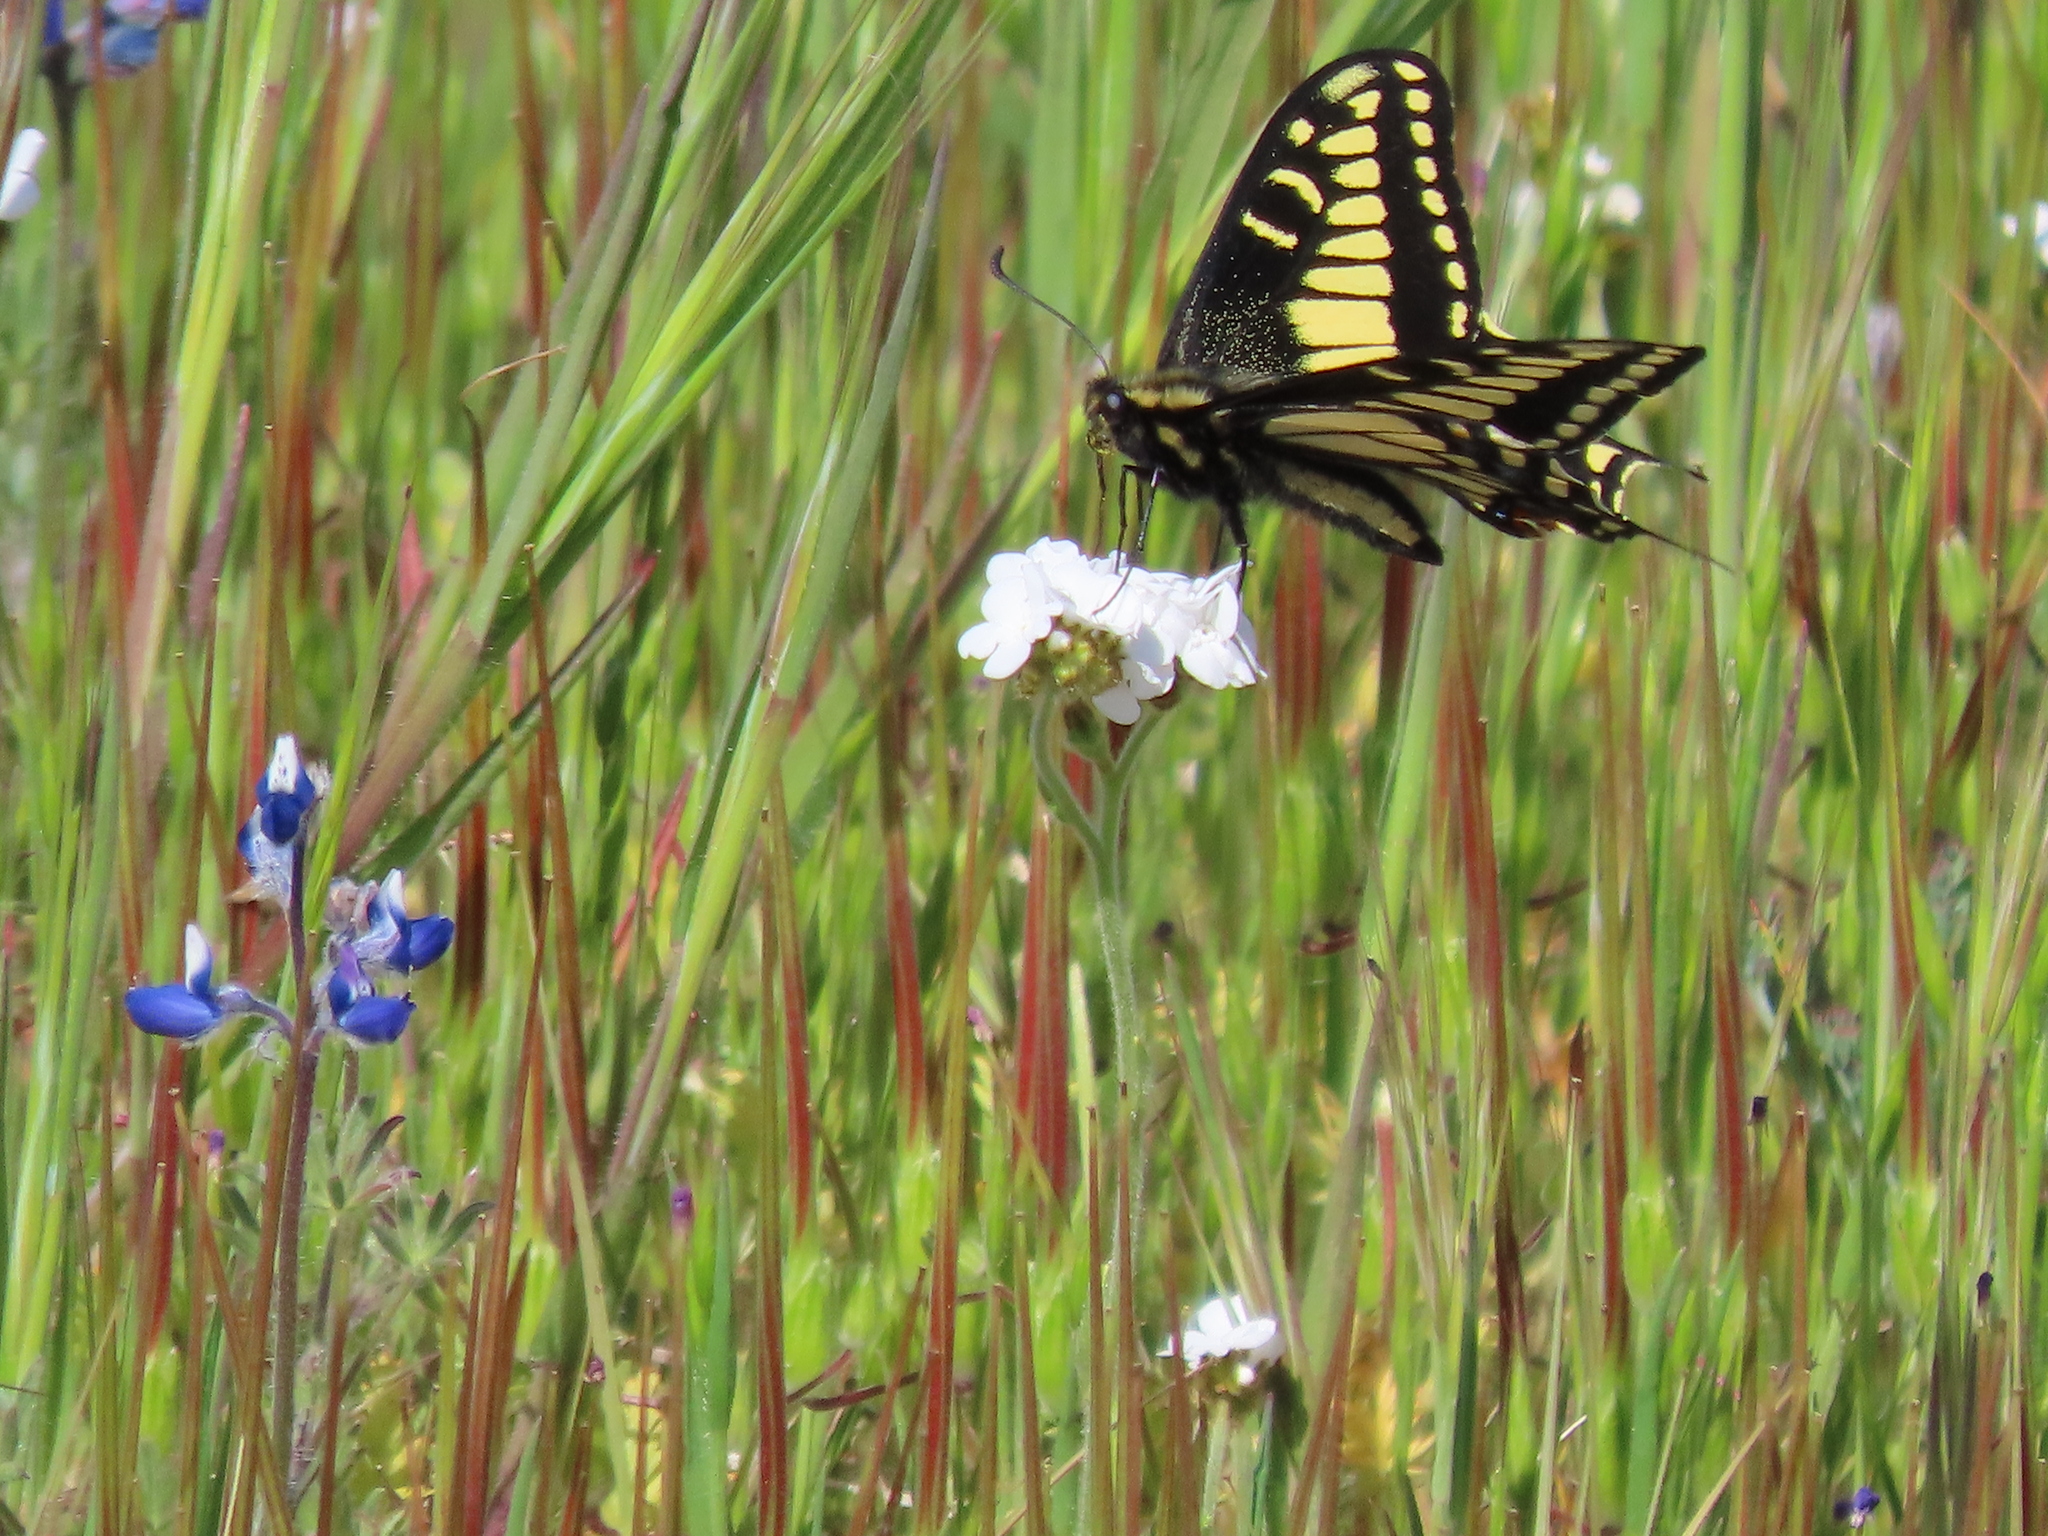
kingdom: Animalia
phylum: Arthropoda
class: Insecta
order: Lepidoptera
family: Papilionidae
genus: Papilio
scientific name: Papilio zelicaon
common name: Anise swallowtail
